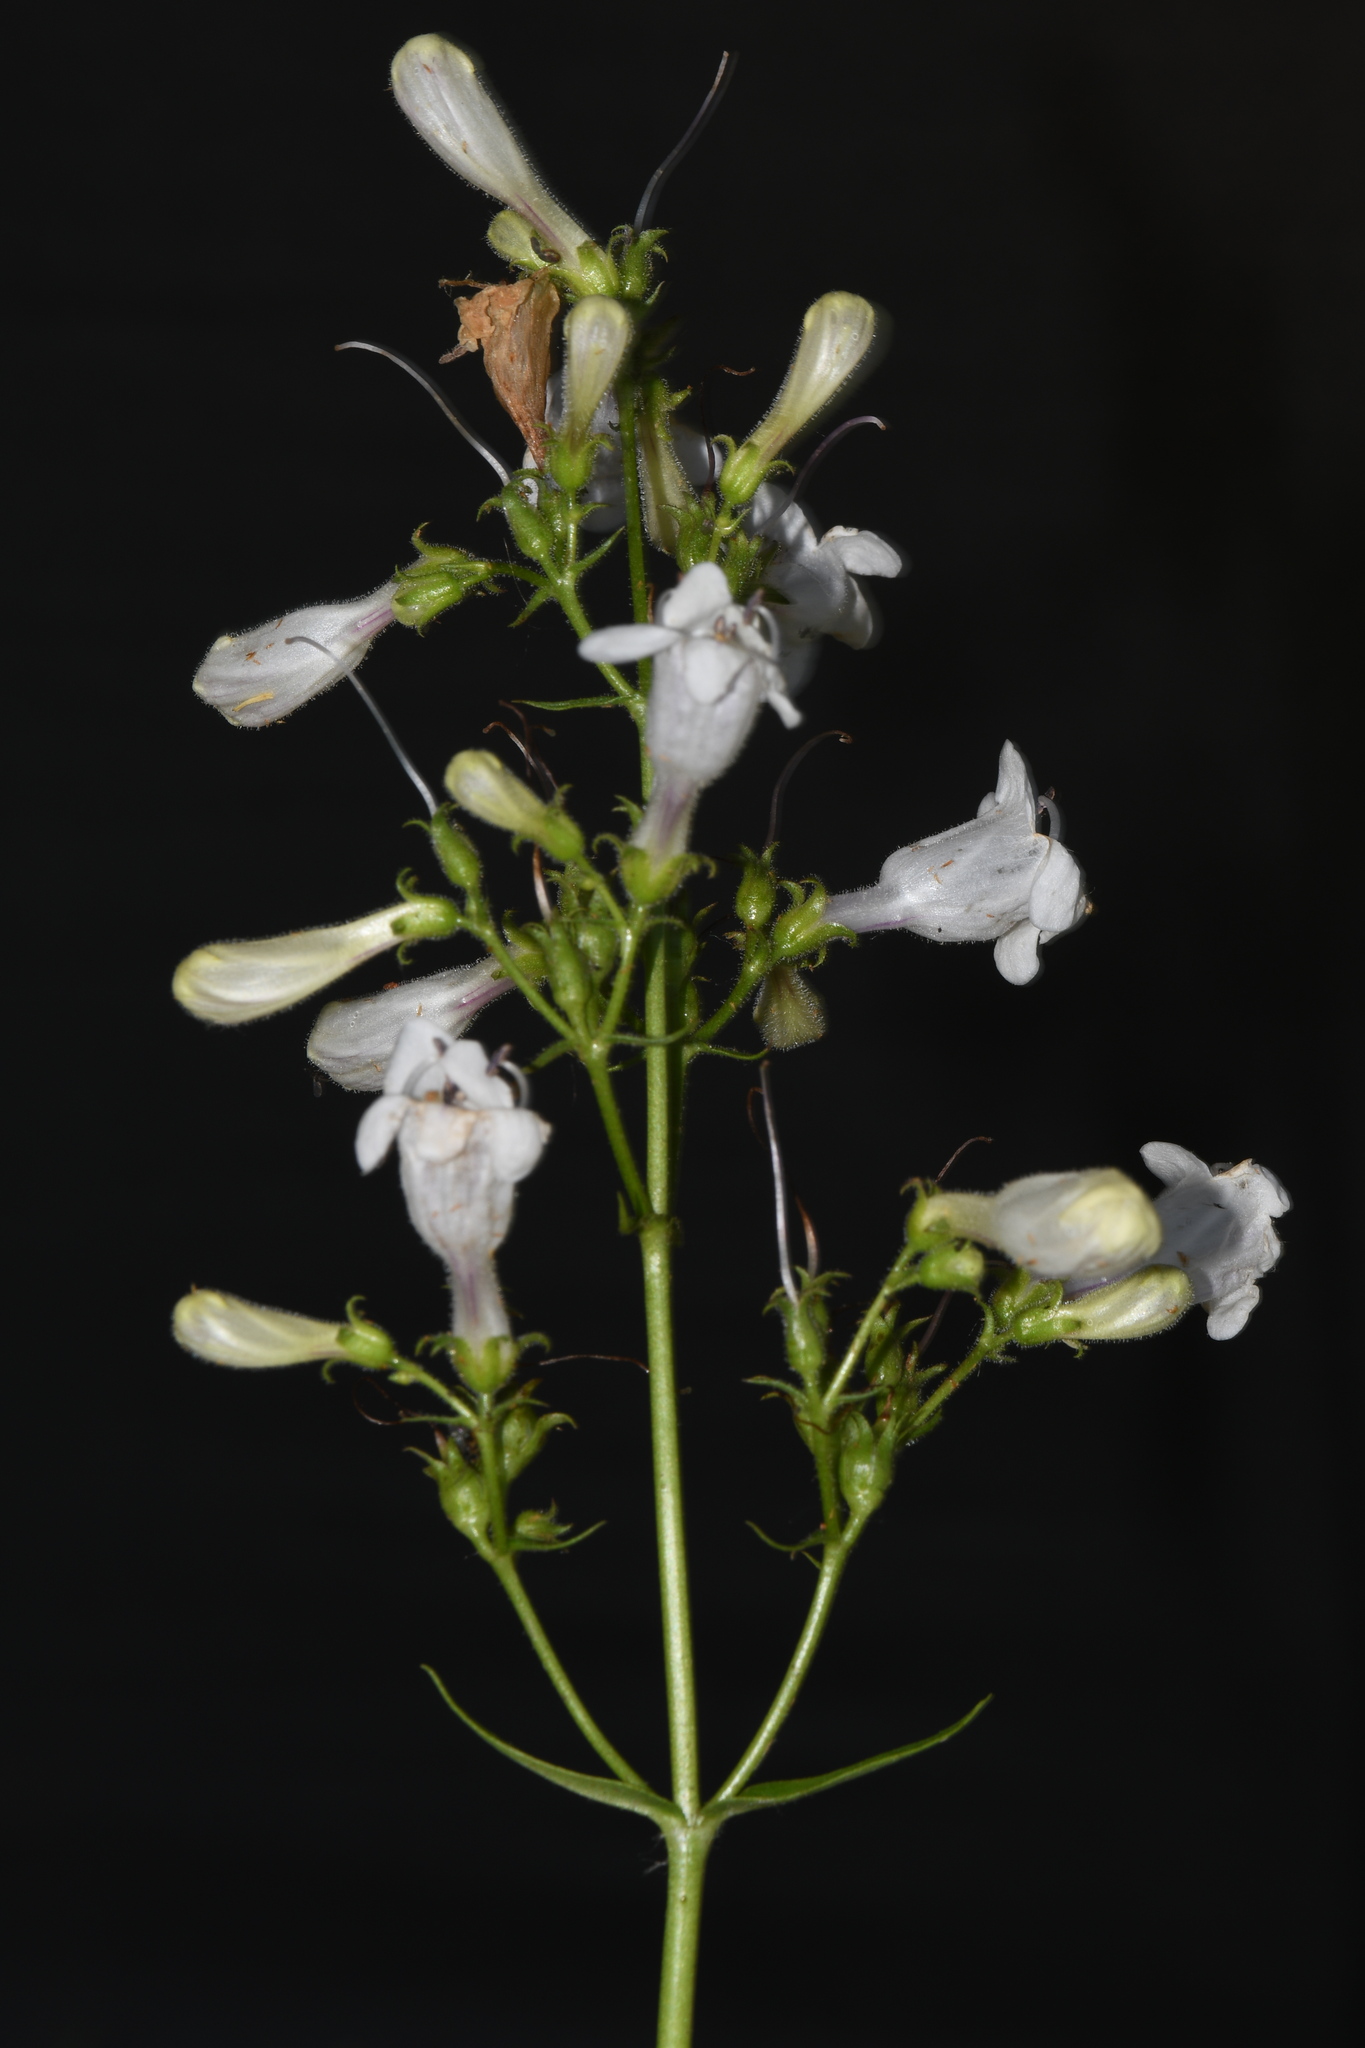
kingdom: Plantae
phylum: Tracheophyta
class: Magnoliopsida
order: Lamiales
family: Plantaginaceae
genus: Penstemon
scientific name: Penstemon digitalis
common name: Foxglove beardtongue
